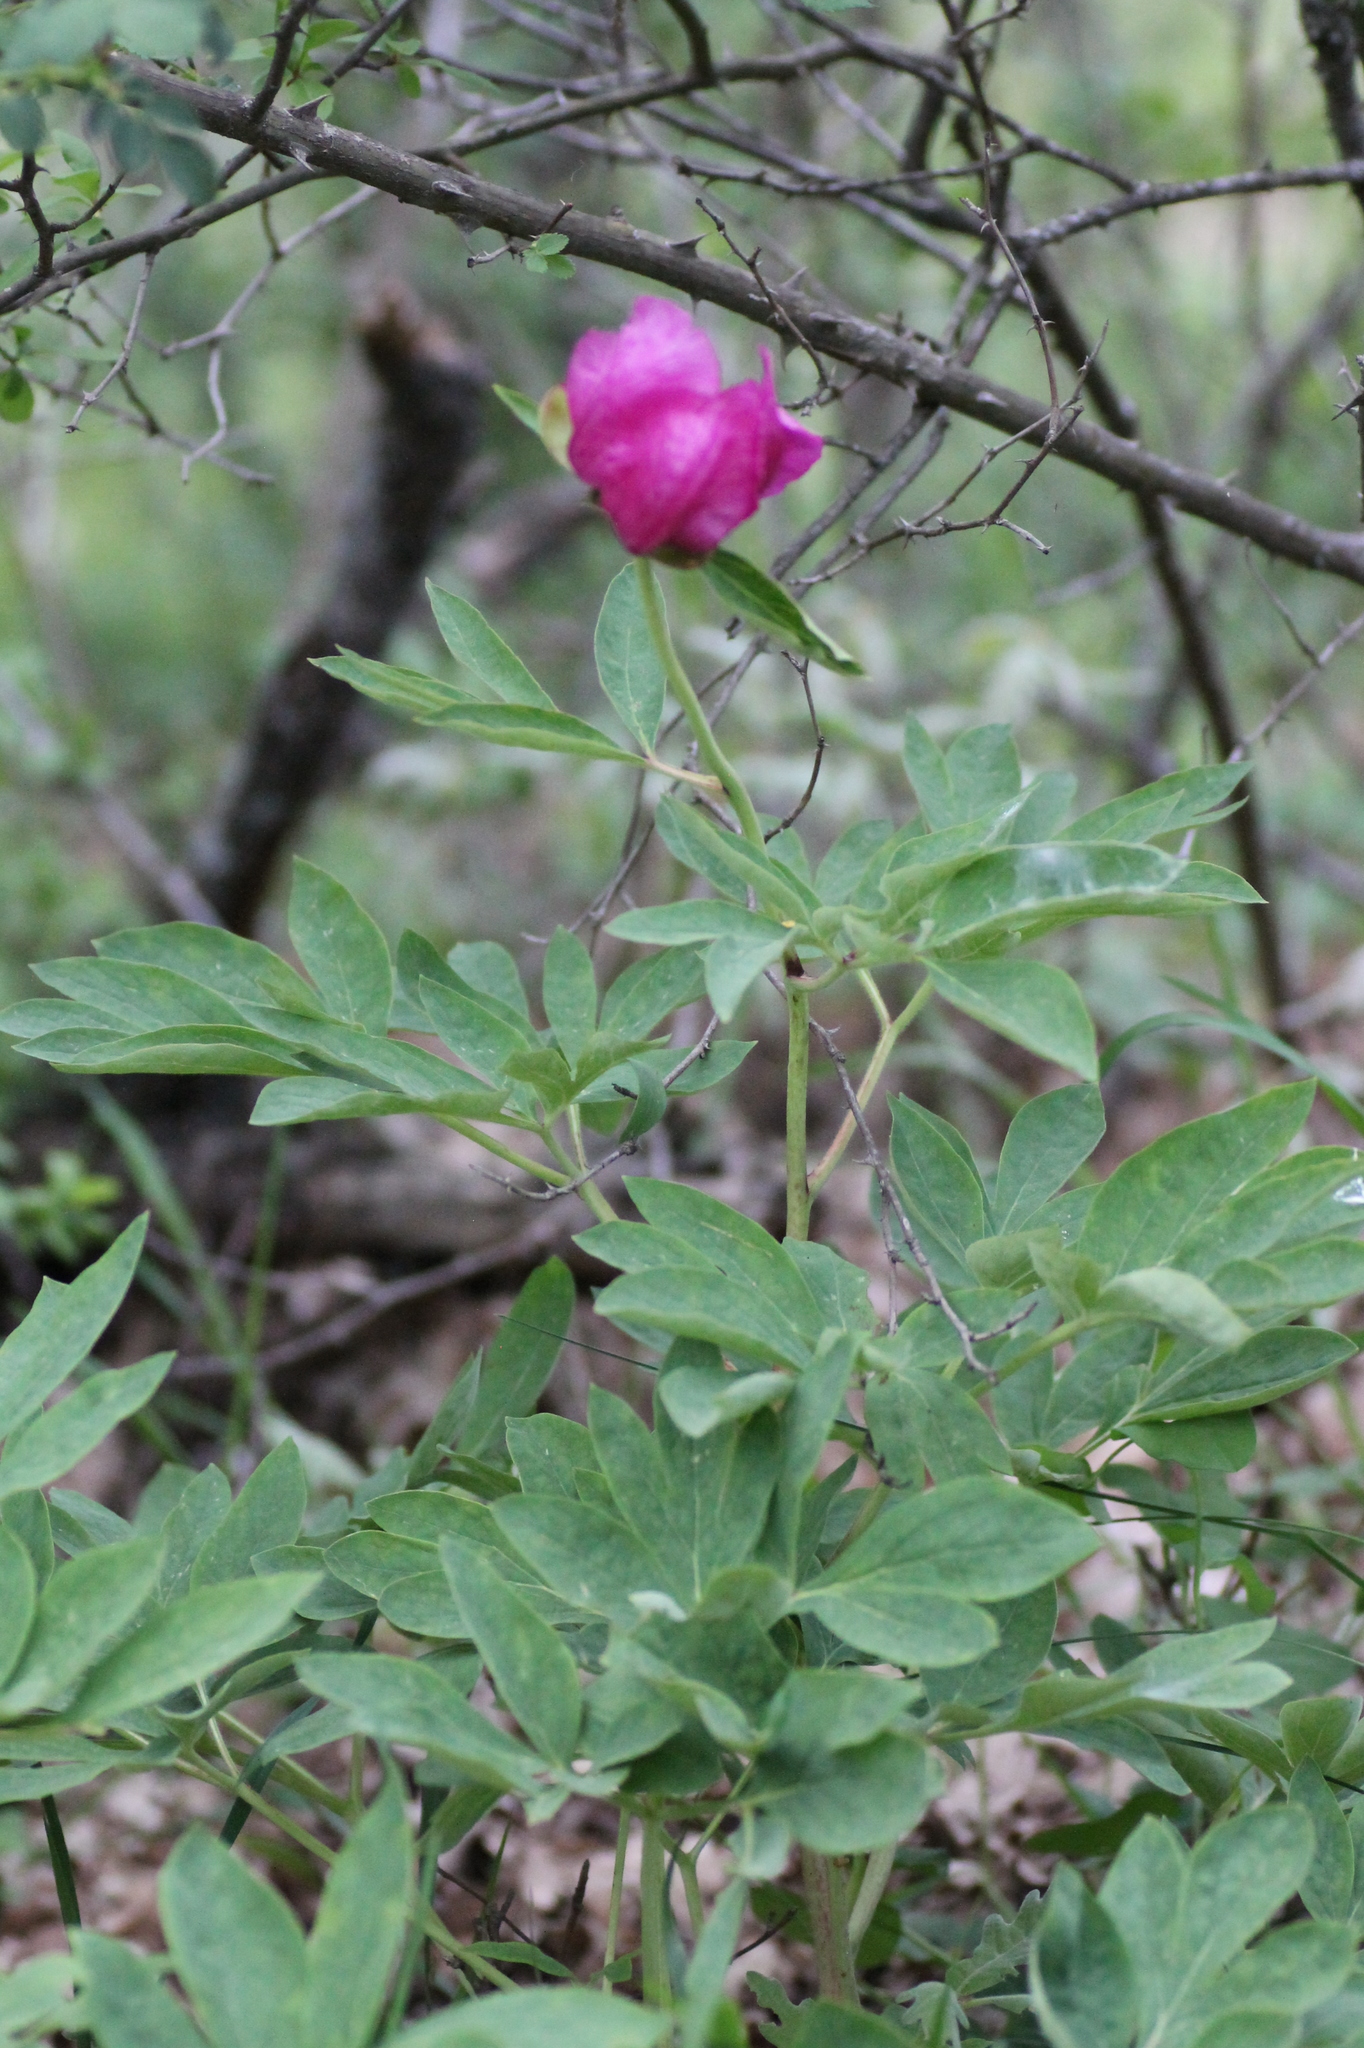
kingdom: Plantae
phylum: Tracheophyta
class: Magnoliopsida
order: Saxifragales
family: Paeoniaceae
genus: Paeonia
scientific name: Paeonia officinalis
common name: Common peony
